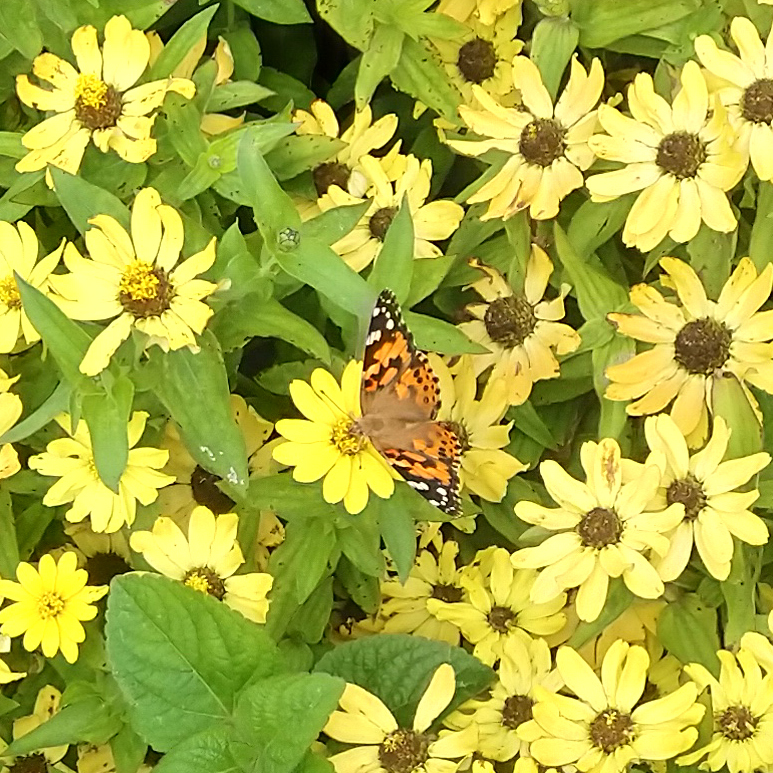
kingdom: Animalia
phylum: Arthropoda
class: Insecta
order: Lepidoptera
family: Nymphalidae
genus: Vanessa
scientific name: Vanessa cardui
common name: Painted lady
